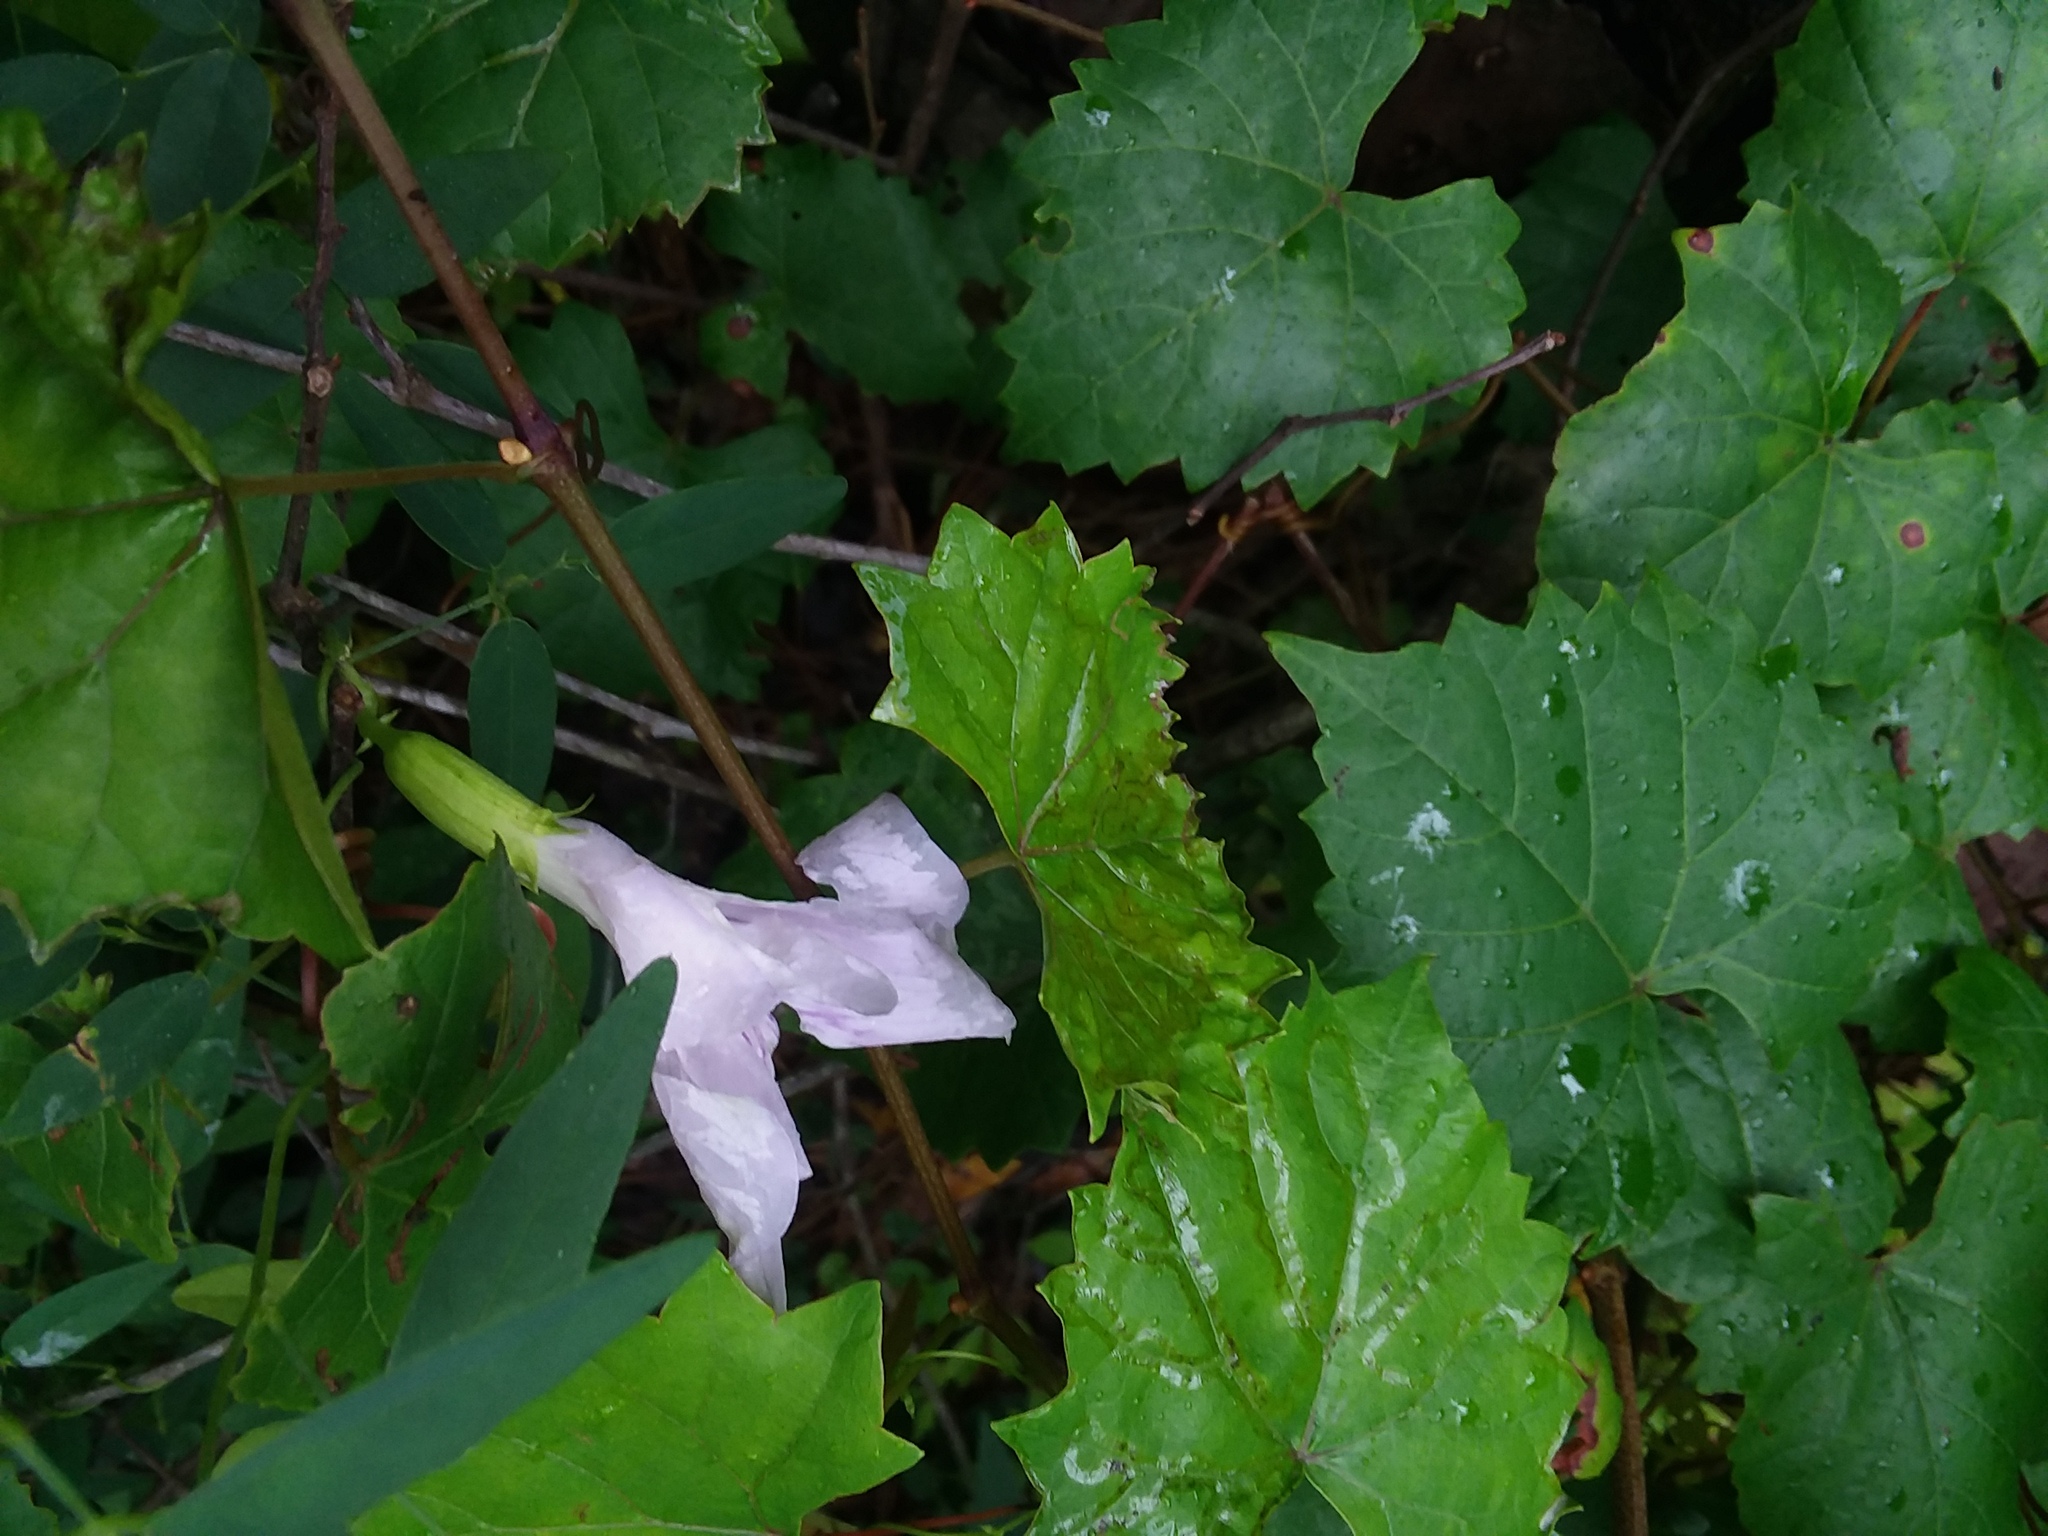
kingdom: Plantae
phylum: Tracheophyta
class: Magnoliopsida
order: Fabales
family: Fabaceae
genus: Clitoria
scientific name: Clitoria mariana
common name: Butterfly-pea
